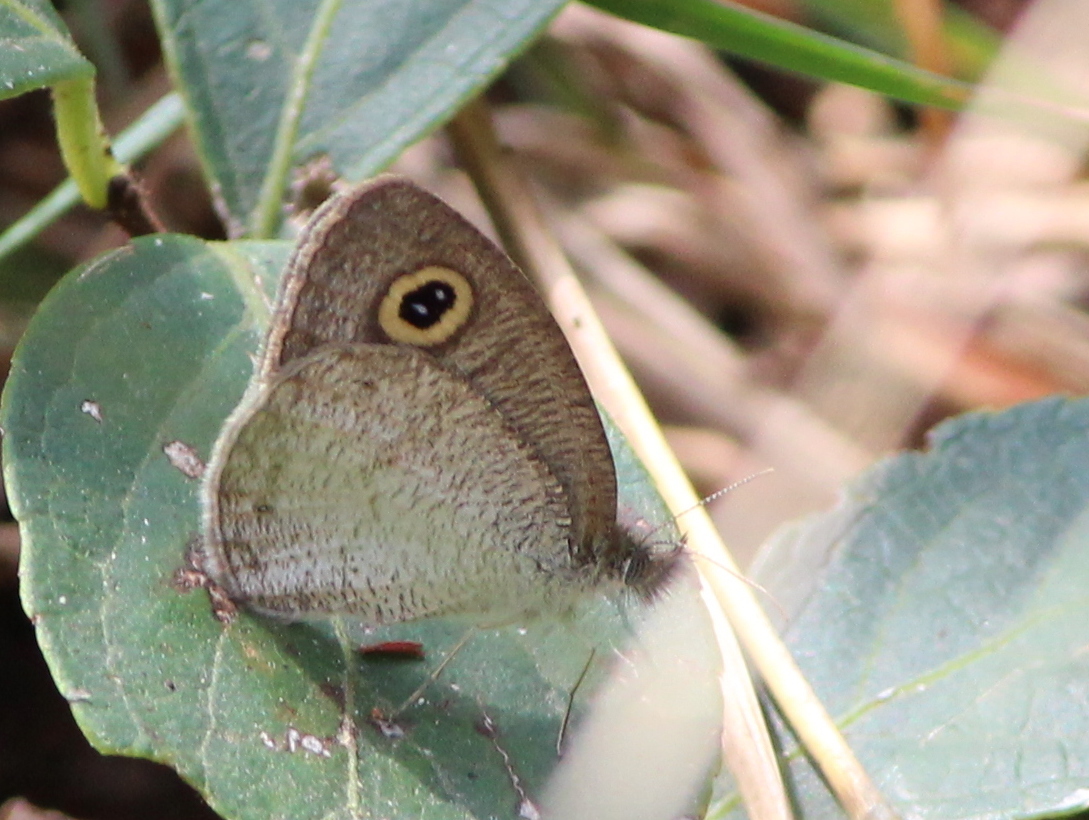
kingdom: Animalia
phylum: Arthropoda
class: Insecta
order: Lepidoptera
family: Nymphalidae
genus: Ypthima
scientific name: Ypthima huebneri
